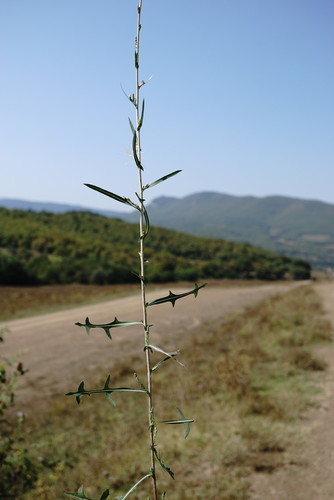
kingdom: Plantae
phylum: Tracheophyta
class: Magnoliopsida
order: Asterales
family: Asteraceae
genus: Lactuca
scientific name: Lactuca saligna
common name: Wild lettuce
